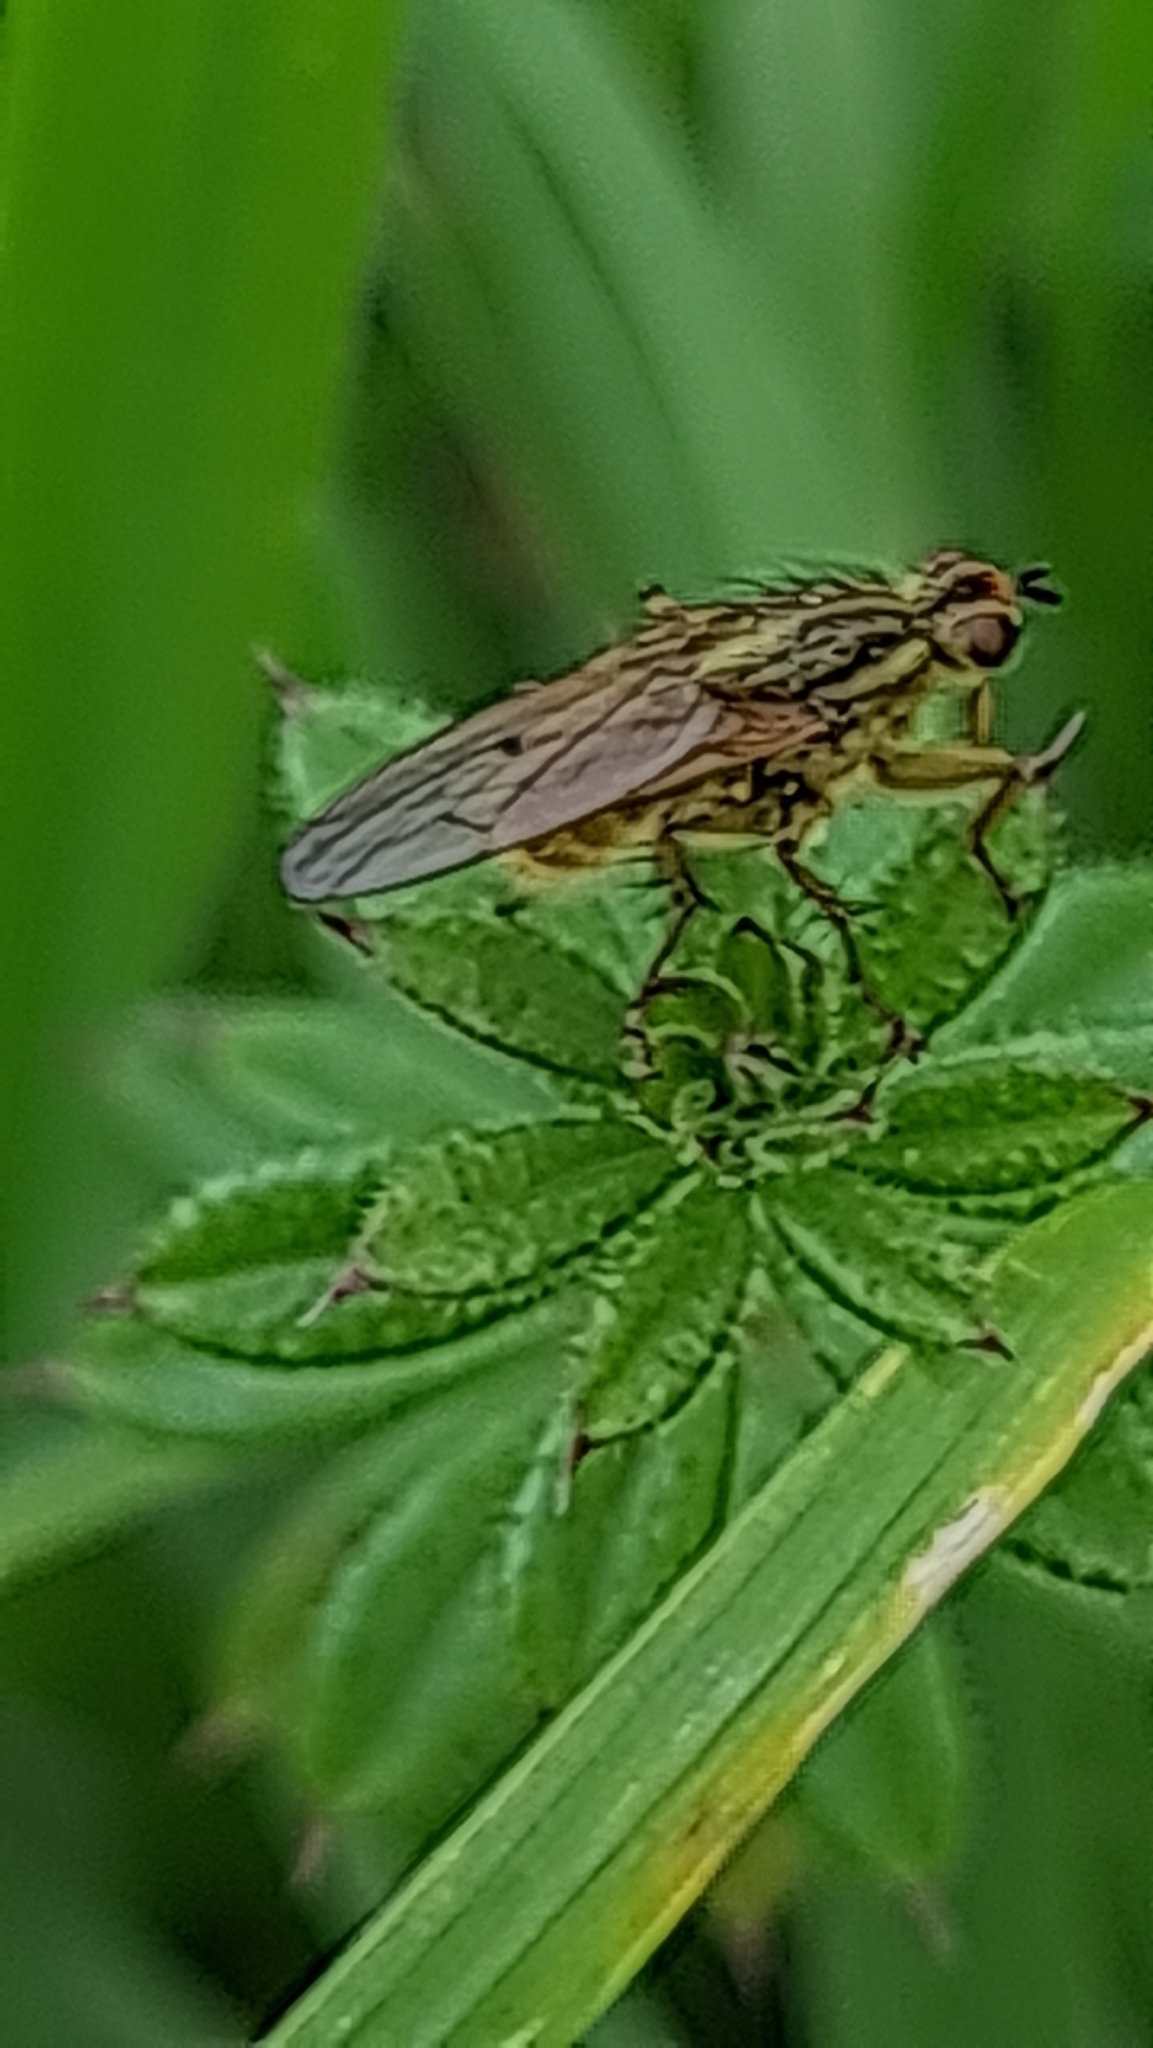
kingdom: Animalia
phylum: Arthropoda
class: Insecta
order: Diptera
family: Scathophagidae
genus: Scathophaga
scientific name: Scathophaga stercoraria
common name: Yellow dung fly
